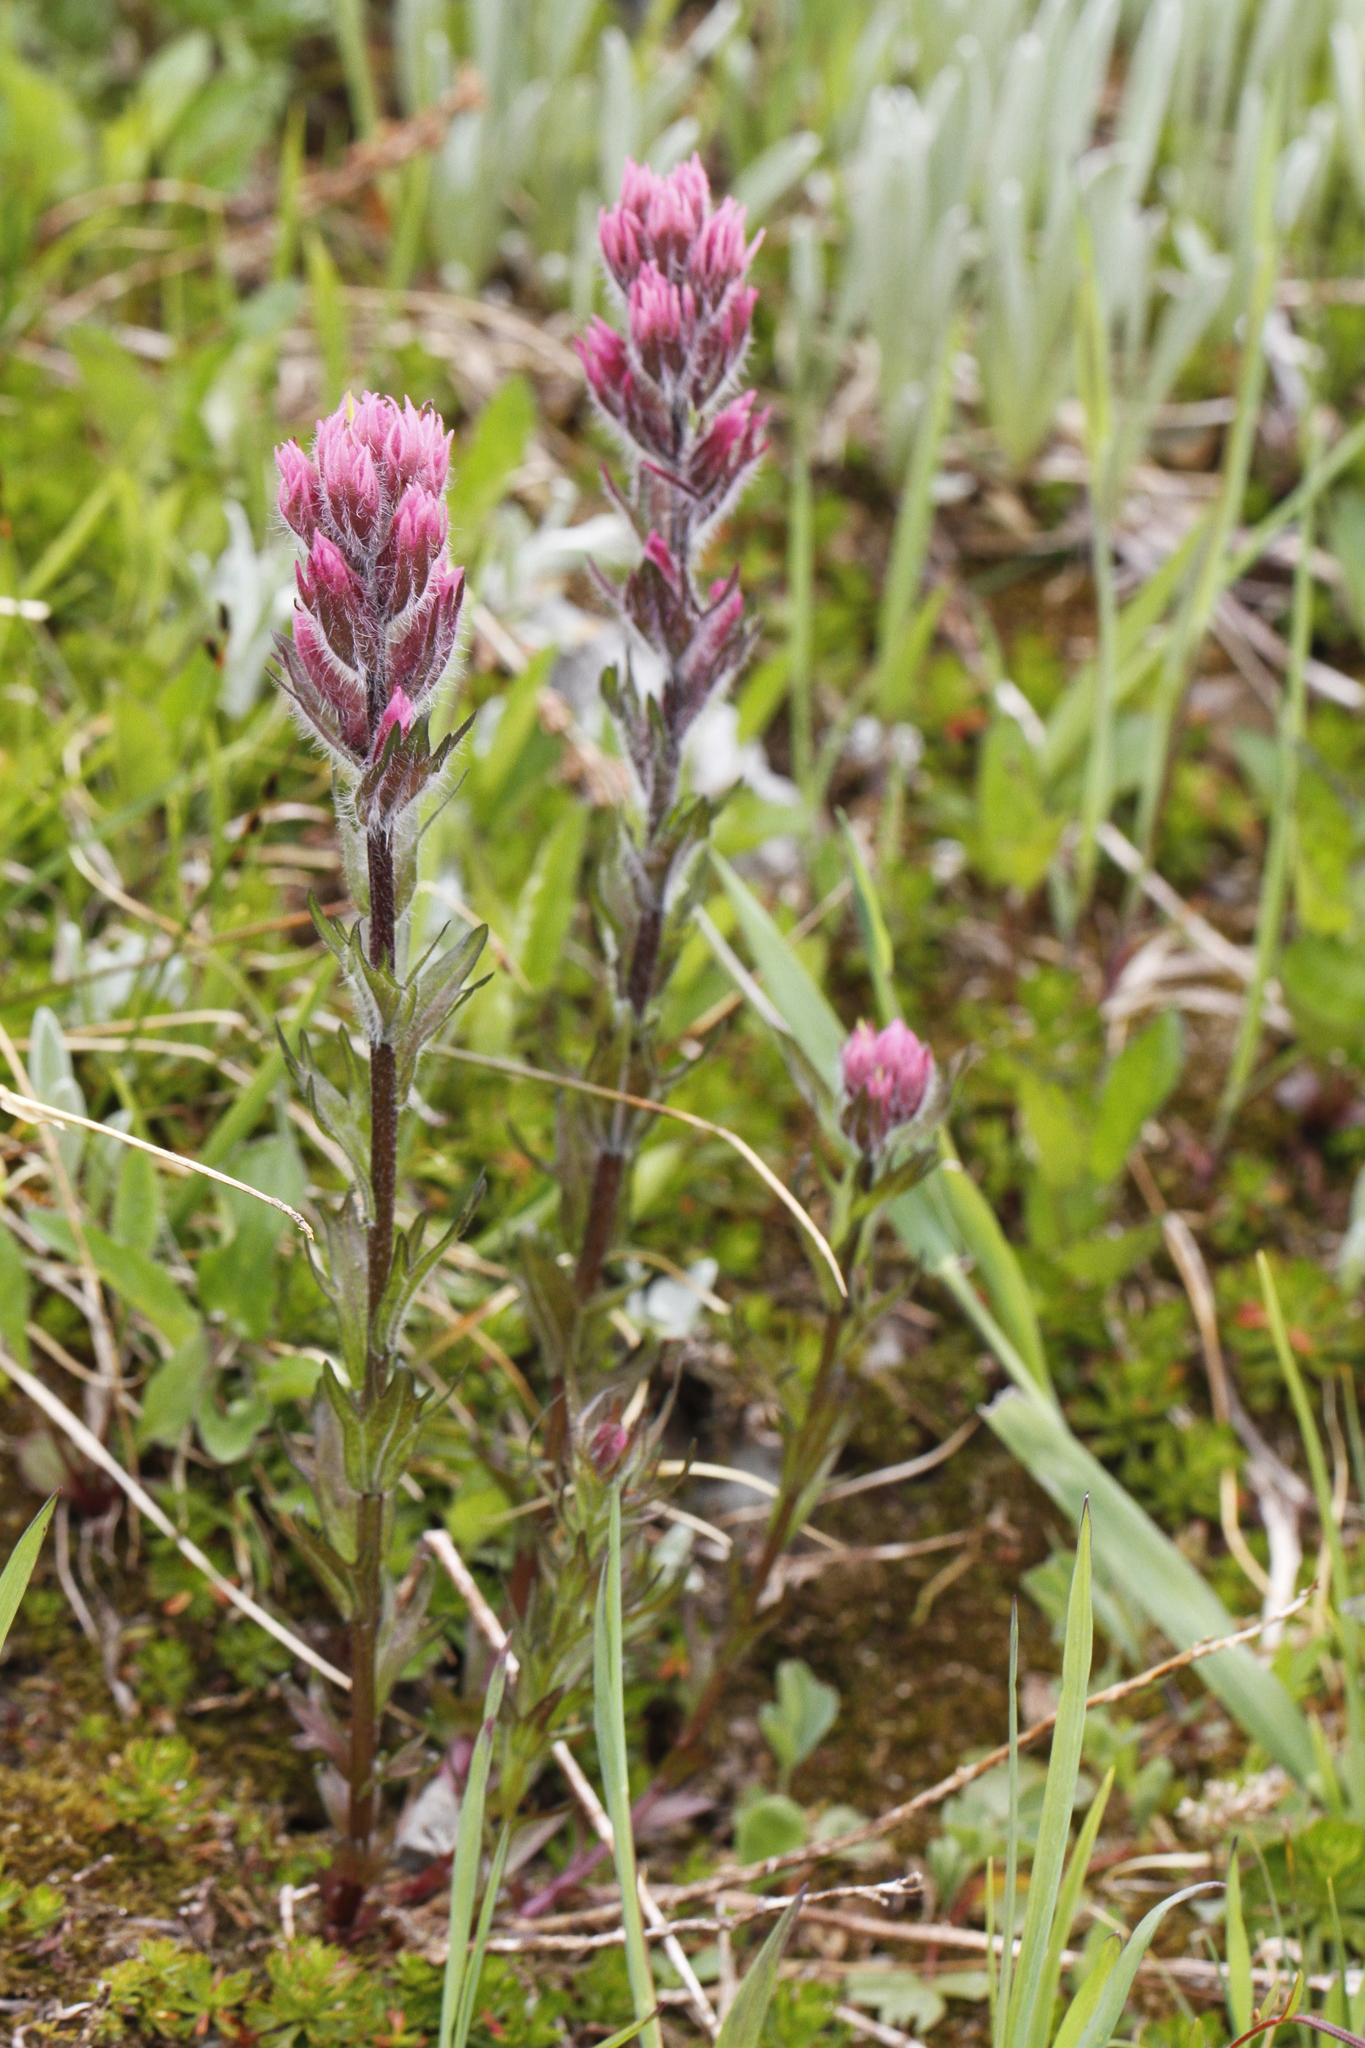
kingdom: Plantae
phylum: Tracheophyta
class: Magnoliopsida
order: Lamiales
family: Orobanchaceae
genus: Castilleja
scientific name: Castilleja parviflora
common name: Mountain paintbrush
